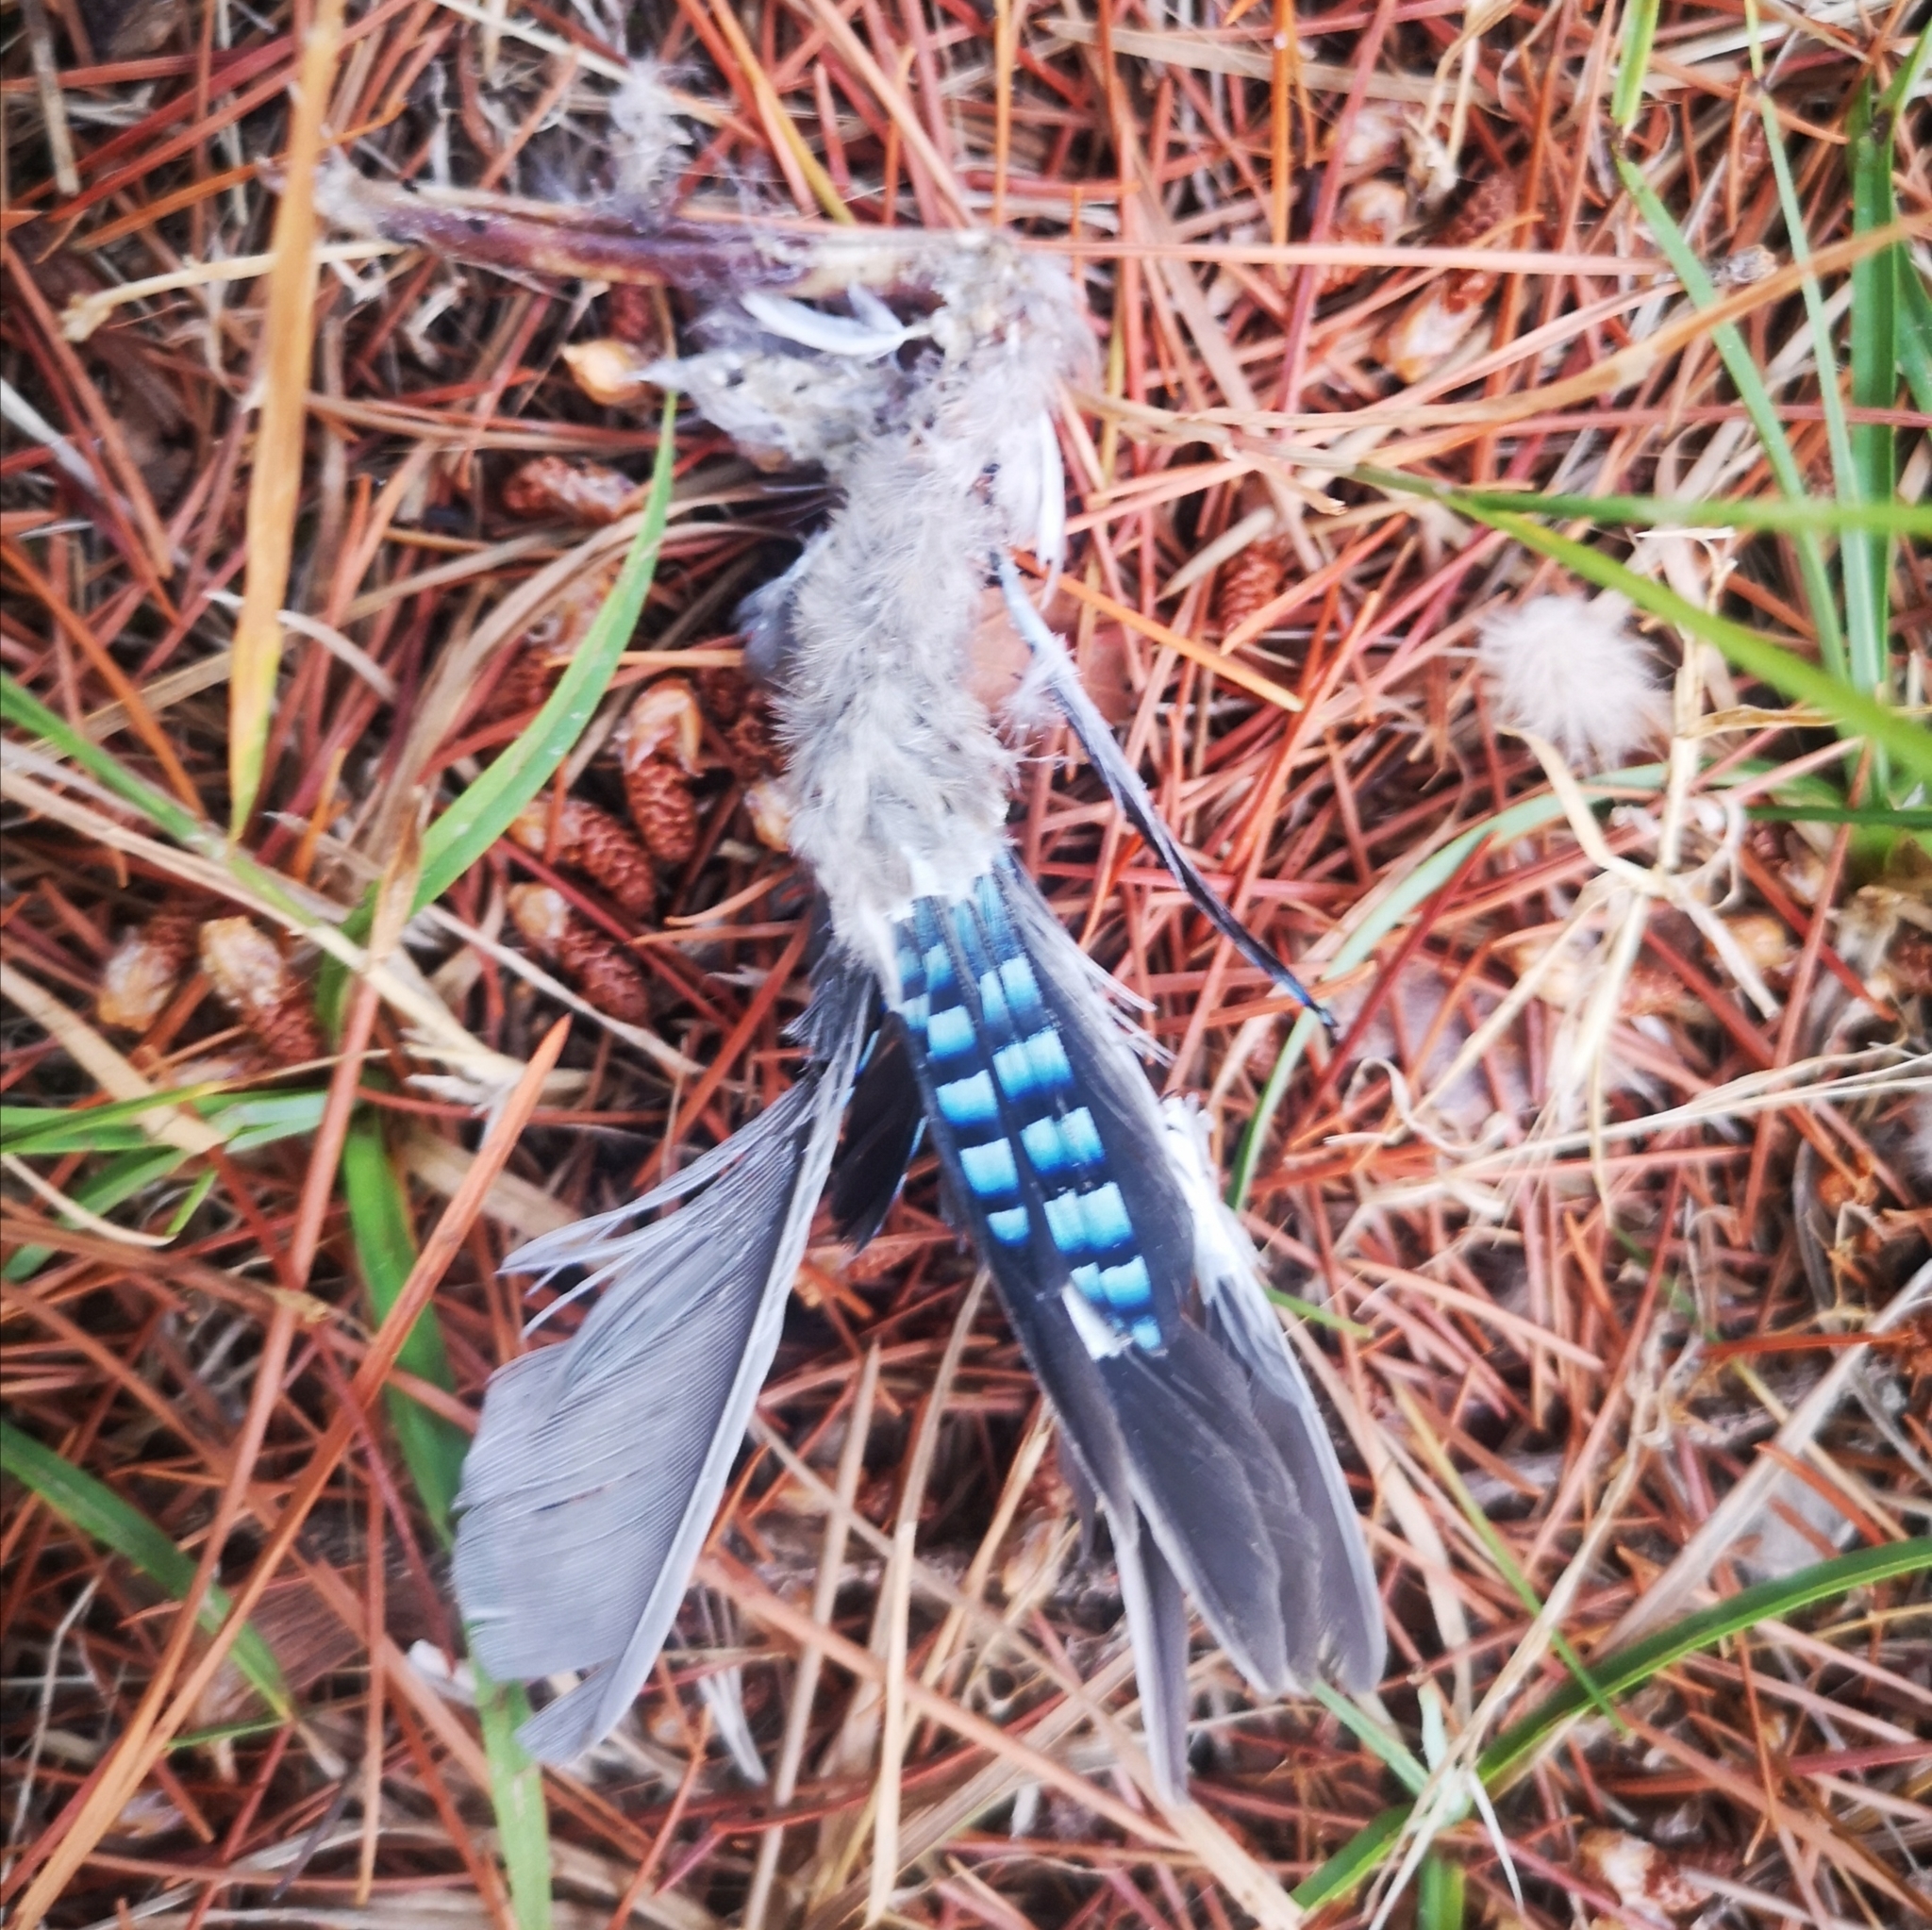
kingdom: Animalia
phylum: Chordata
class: Aves
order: Passeriformes
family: Corvidae
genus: Garrulus
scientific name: Garrulus glandarius
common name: Eurasian jay
